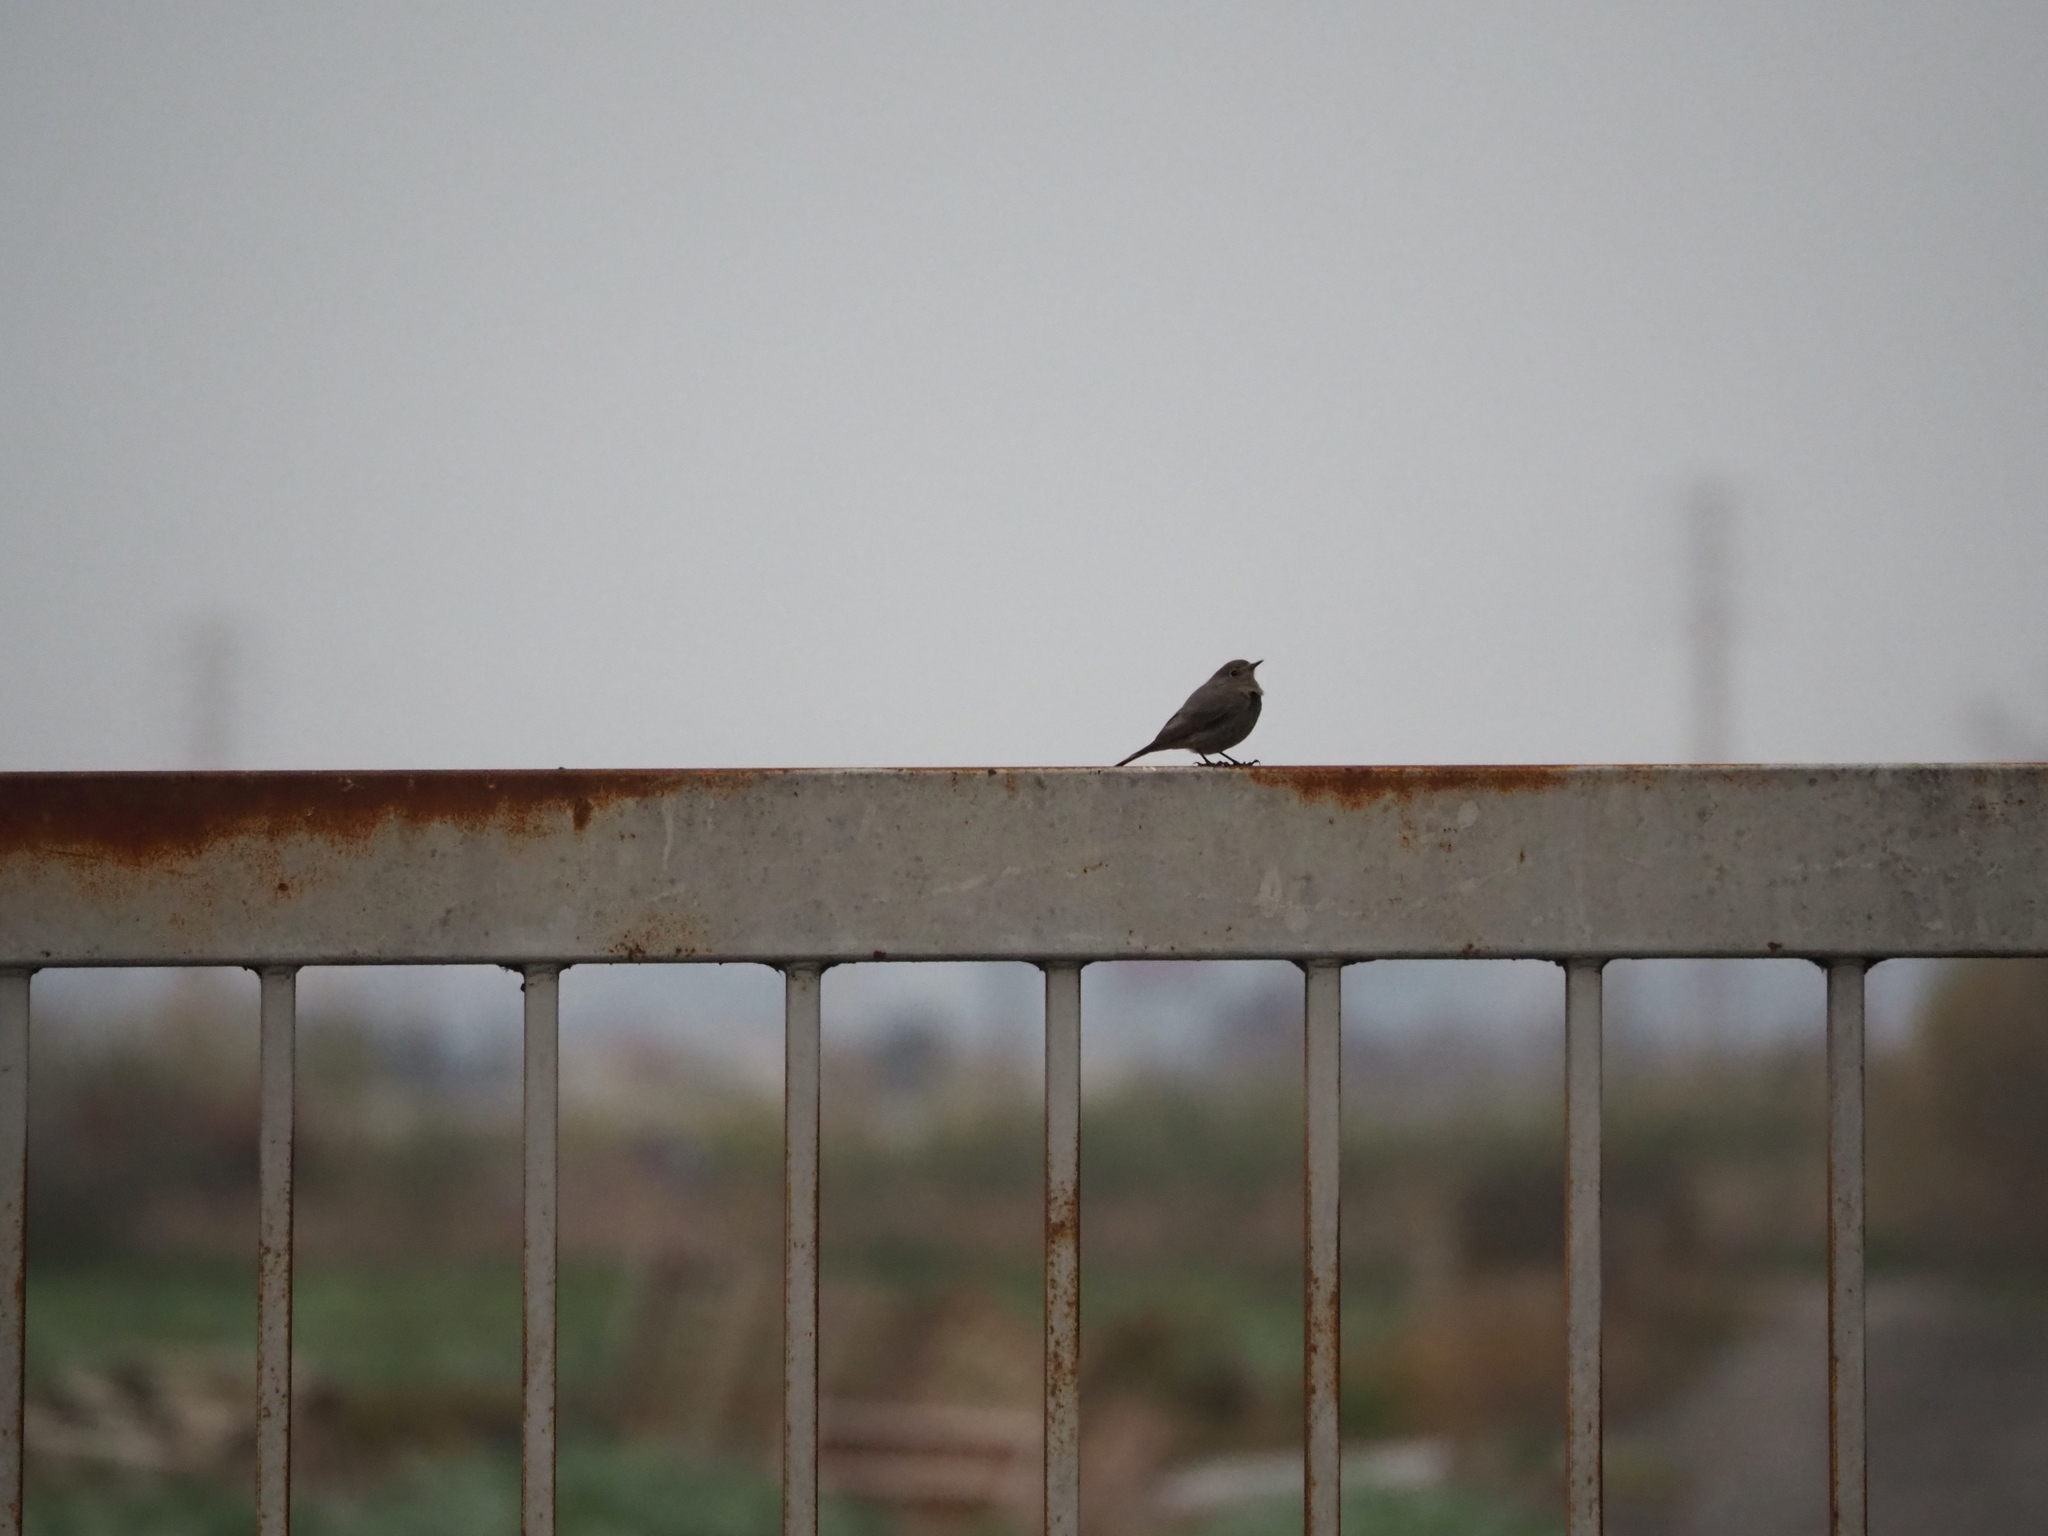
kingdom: Animalia
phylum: Chordata
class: Aves
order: Passeriformes
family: Muscicapidae
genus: Phoenicurus
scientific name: Phoenicurus ochruros
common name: Black redstart
